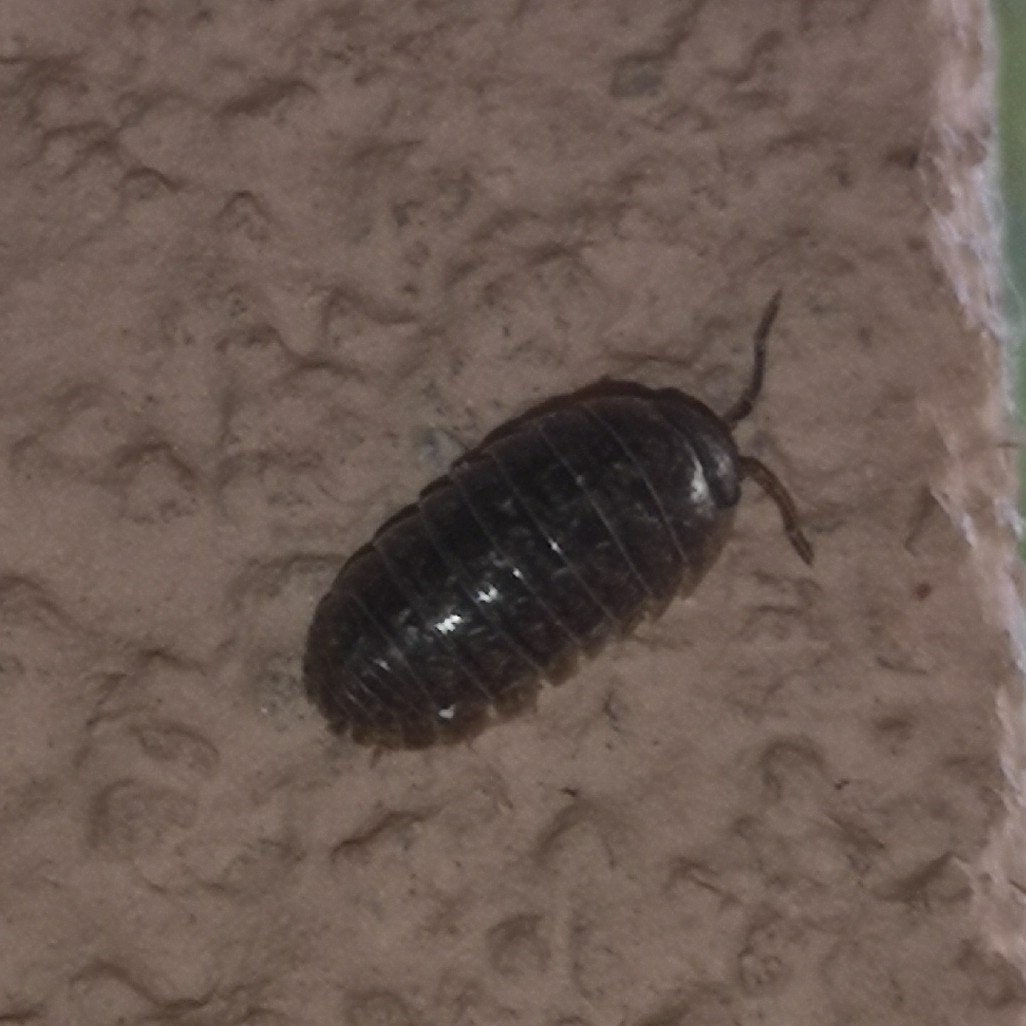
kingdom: Animalia
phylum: Arthropoda
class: Malacostraca
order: Isopoda
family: Armadillidiidae
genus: Armadillidium
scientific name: Armadillidium vulgare
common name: Common pill woodlouse
